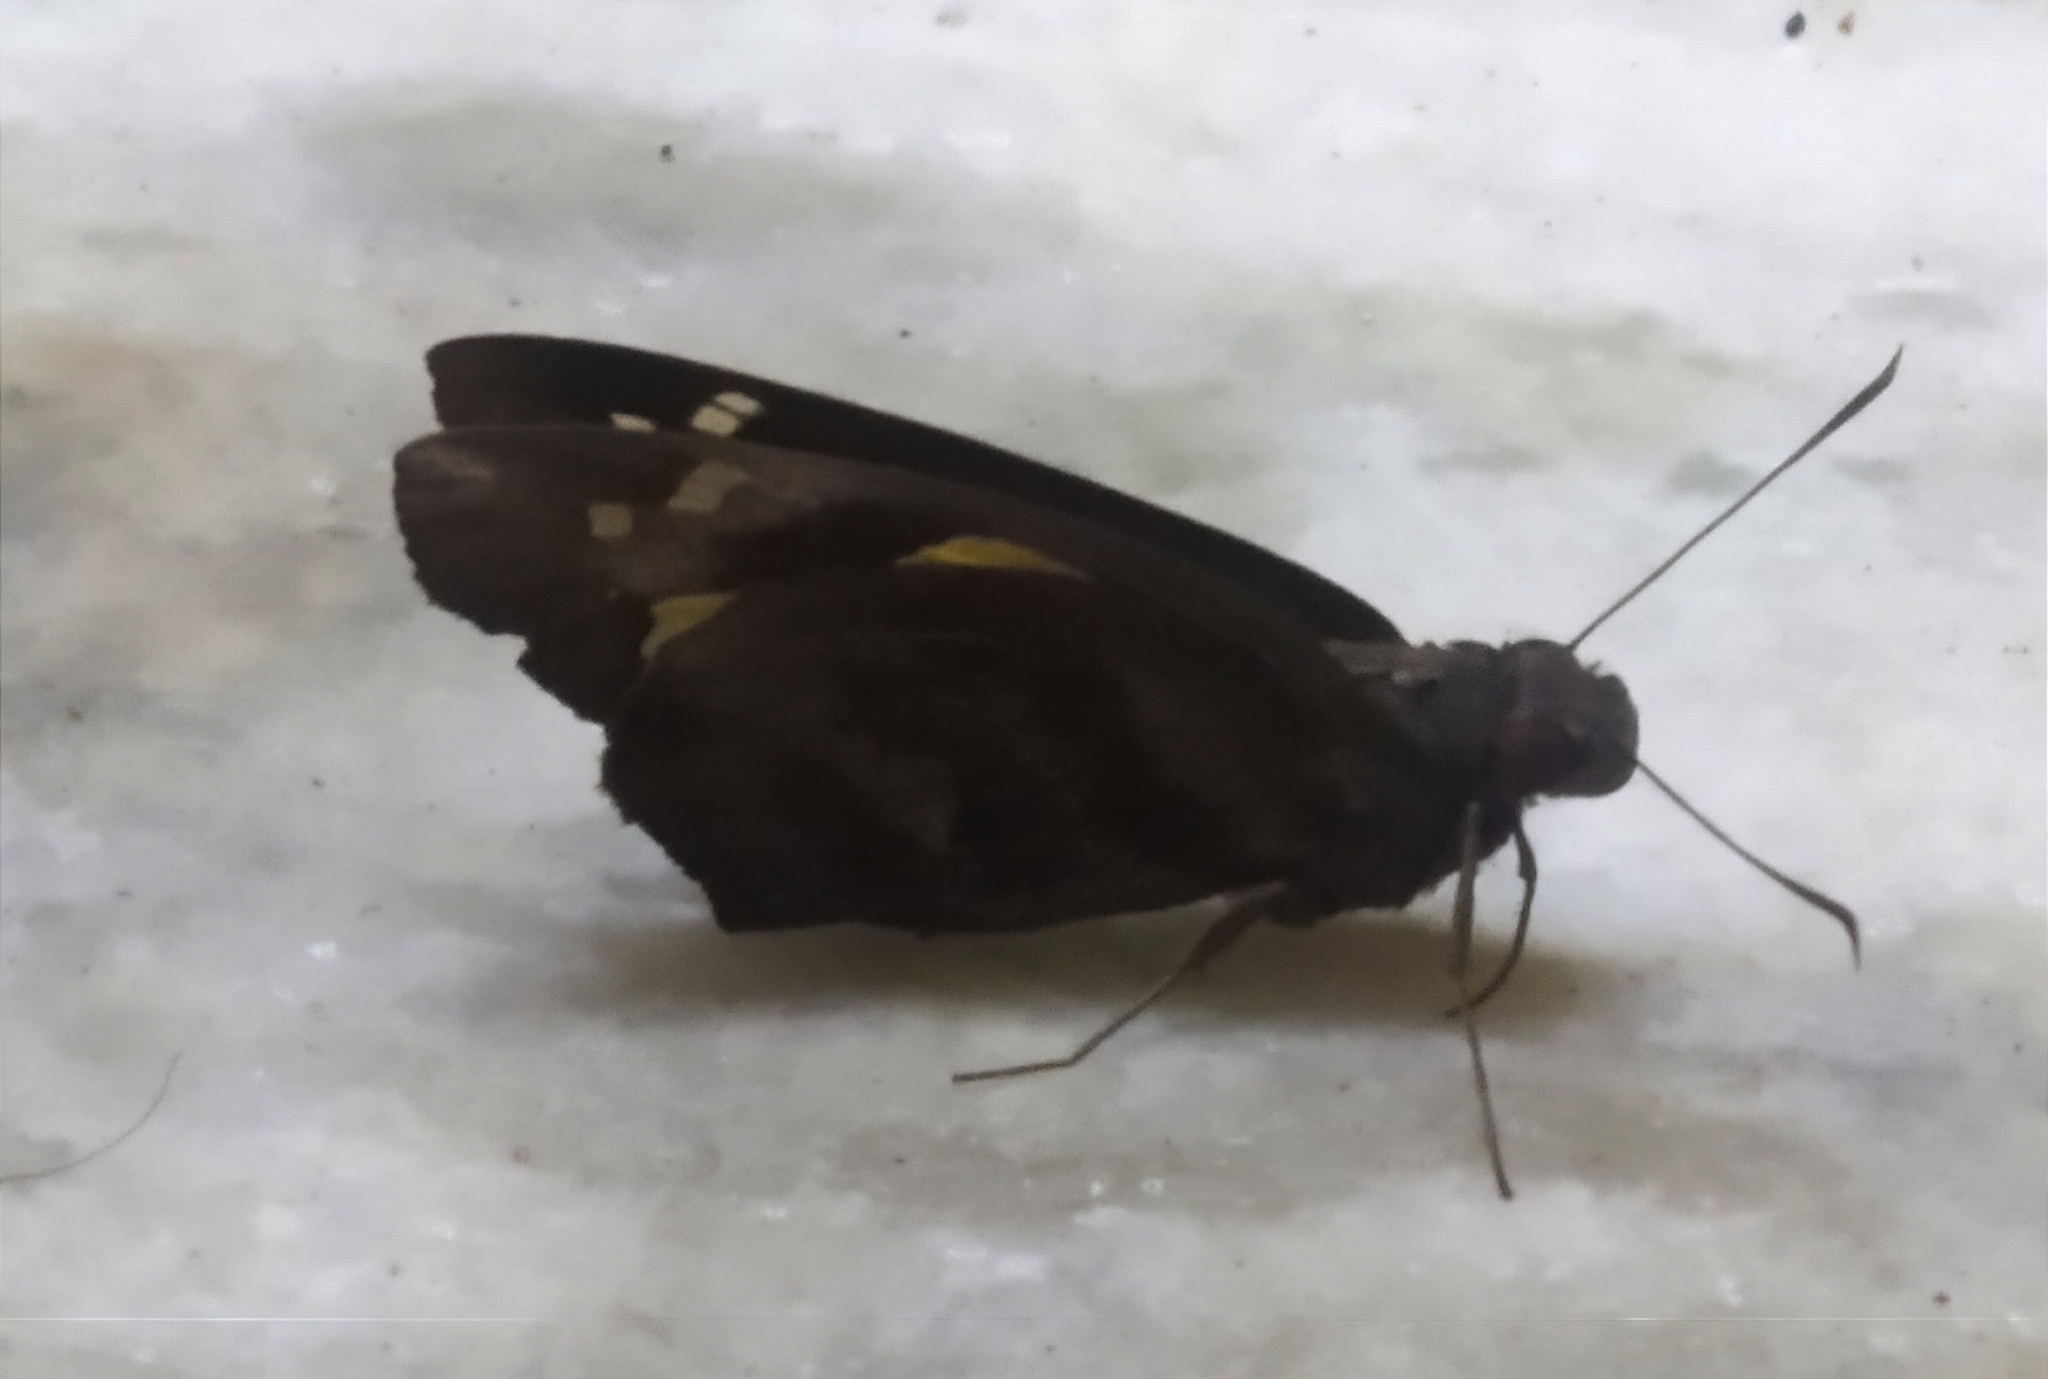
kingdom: Animalia
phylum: Arthropoda
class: Insecta
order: Lepidoptera
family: Hesperiidae
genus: Gangara
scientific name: Gangara thyrsis
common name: Giant redeye
